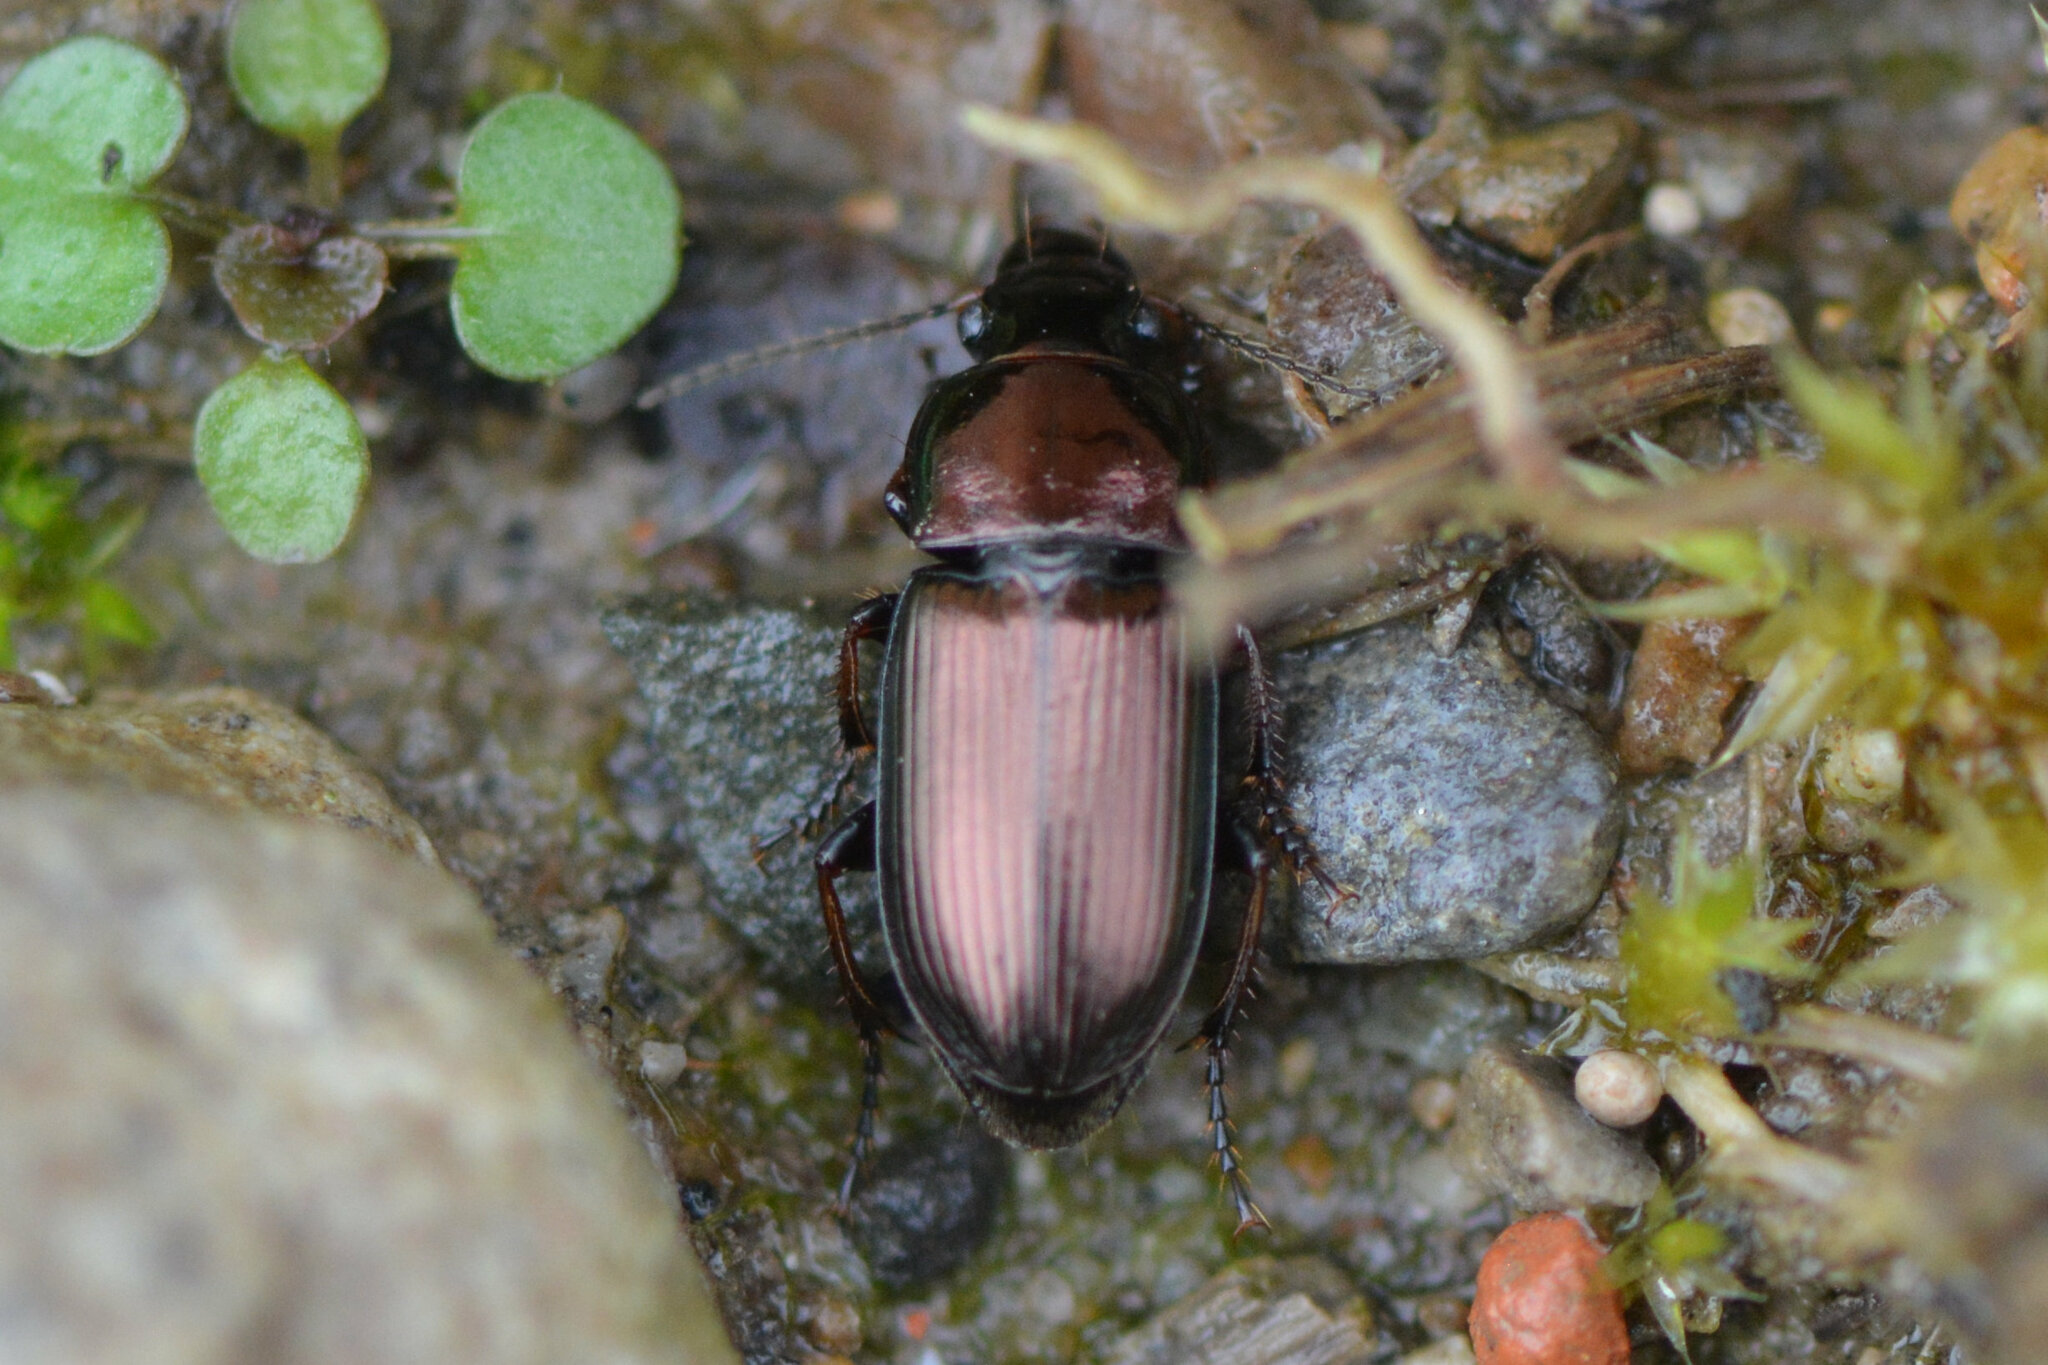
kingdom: Animalia
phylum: Arthropoda
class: Insecta
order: Coleoptera
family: Carabidae
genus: Harpalus
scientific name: Harpalus distinguendus
